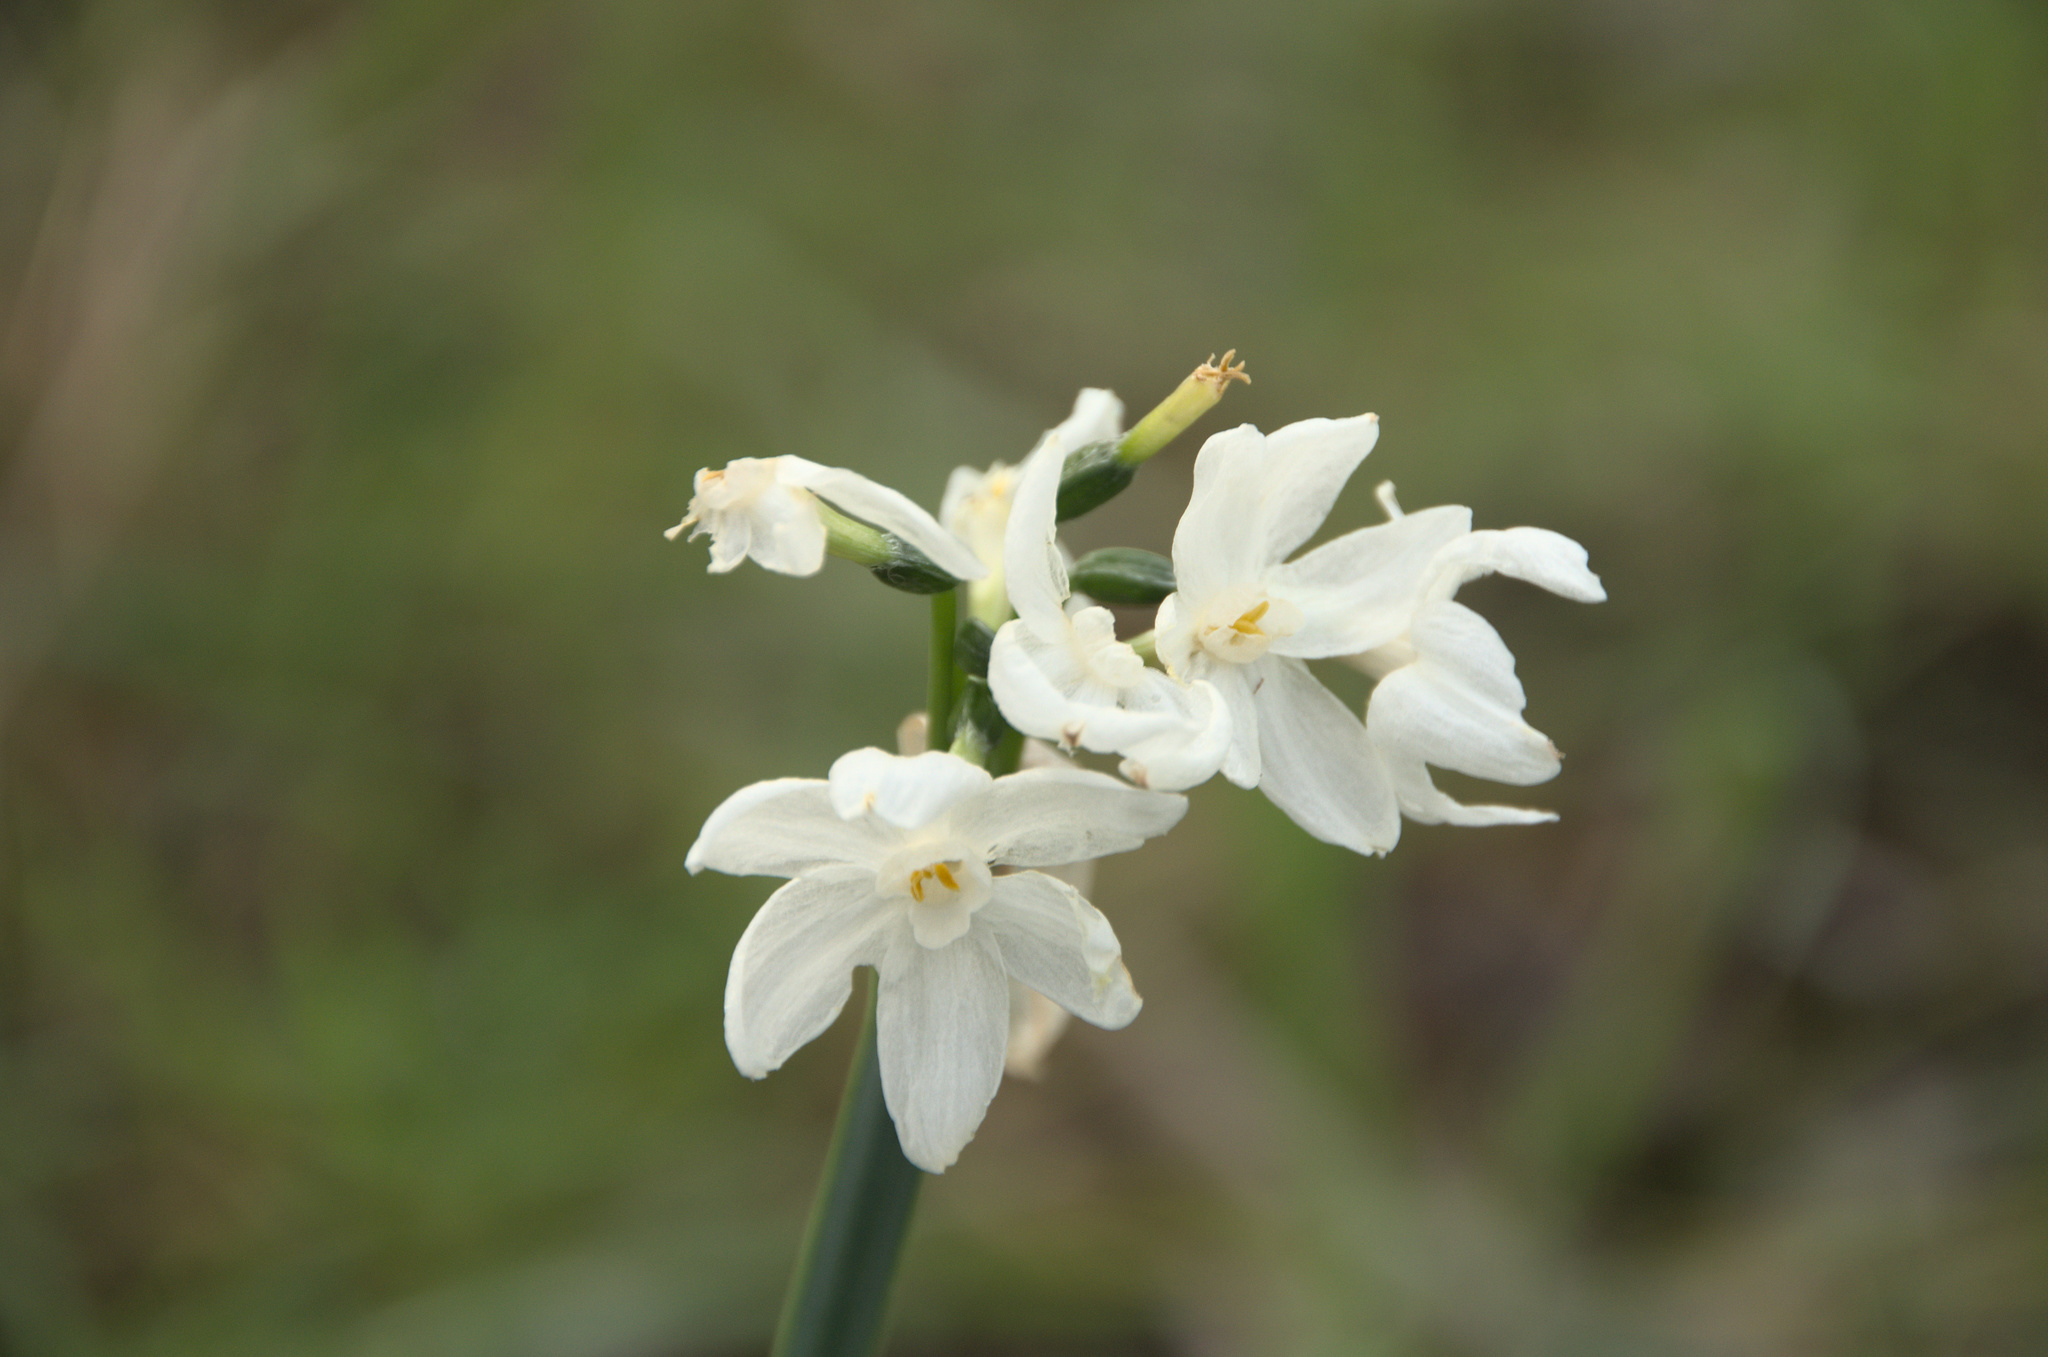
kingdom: Plantae
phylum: Tracheophyta
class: Liliopsida
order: Asparagales
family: Amaryllidaceae
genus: Narcissus
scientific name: Narcissus papyraceus
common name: Paper-white daffodil
